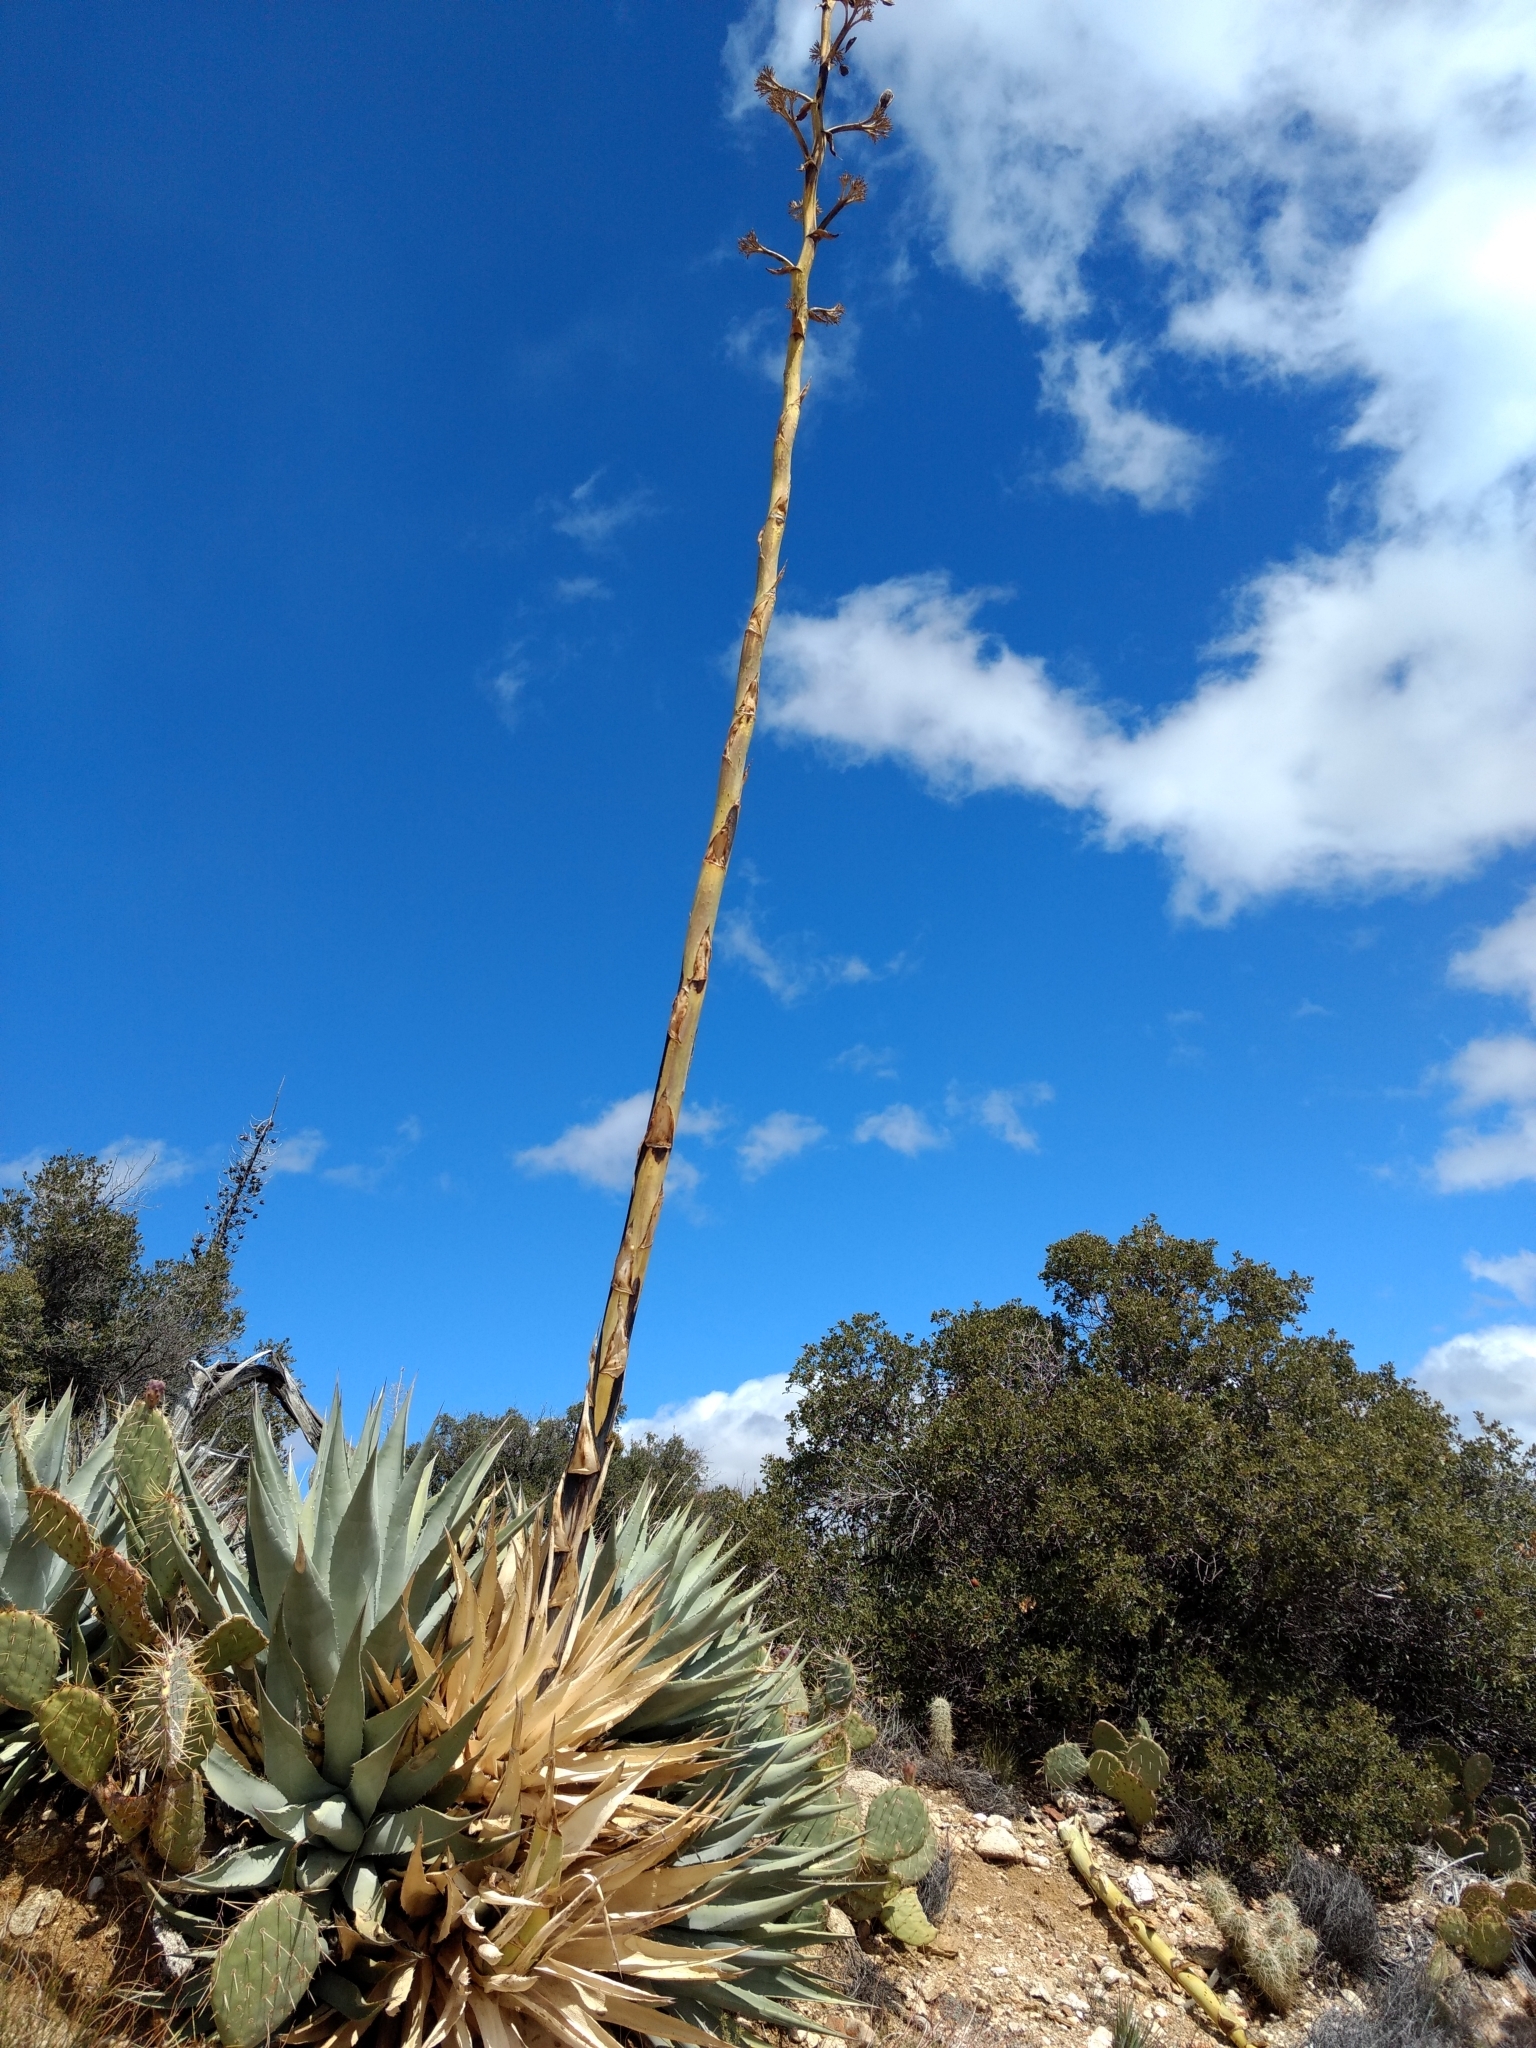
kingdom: Plantae
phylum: Tracheophyta
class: Liliopsida
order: Asparagales
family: Asparagaceae
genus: Agave
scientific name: Agave deserti
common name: Desert agave
